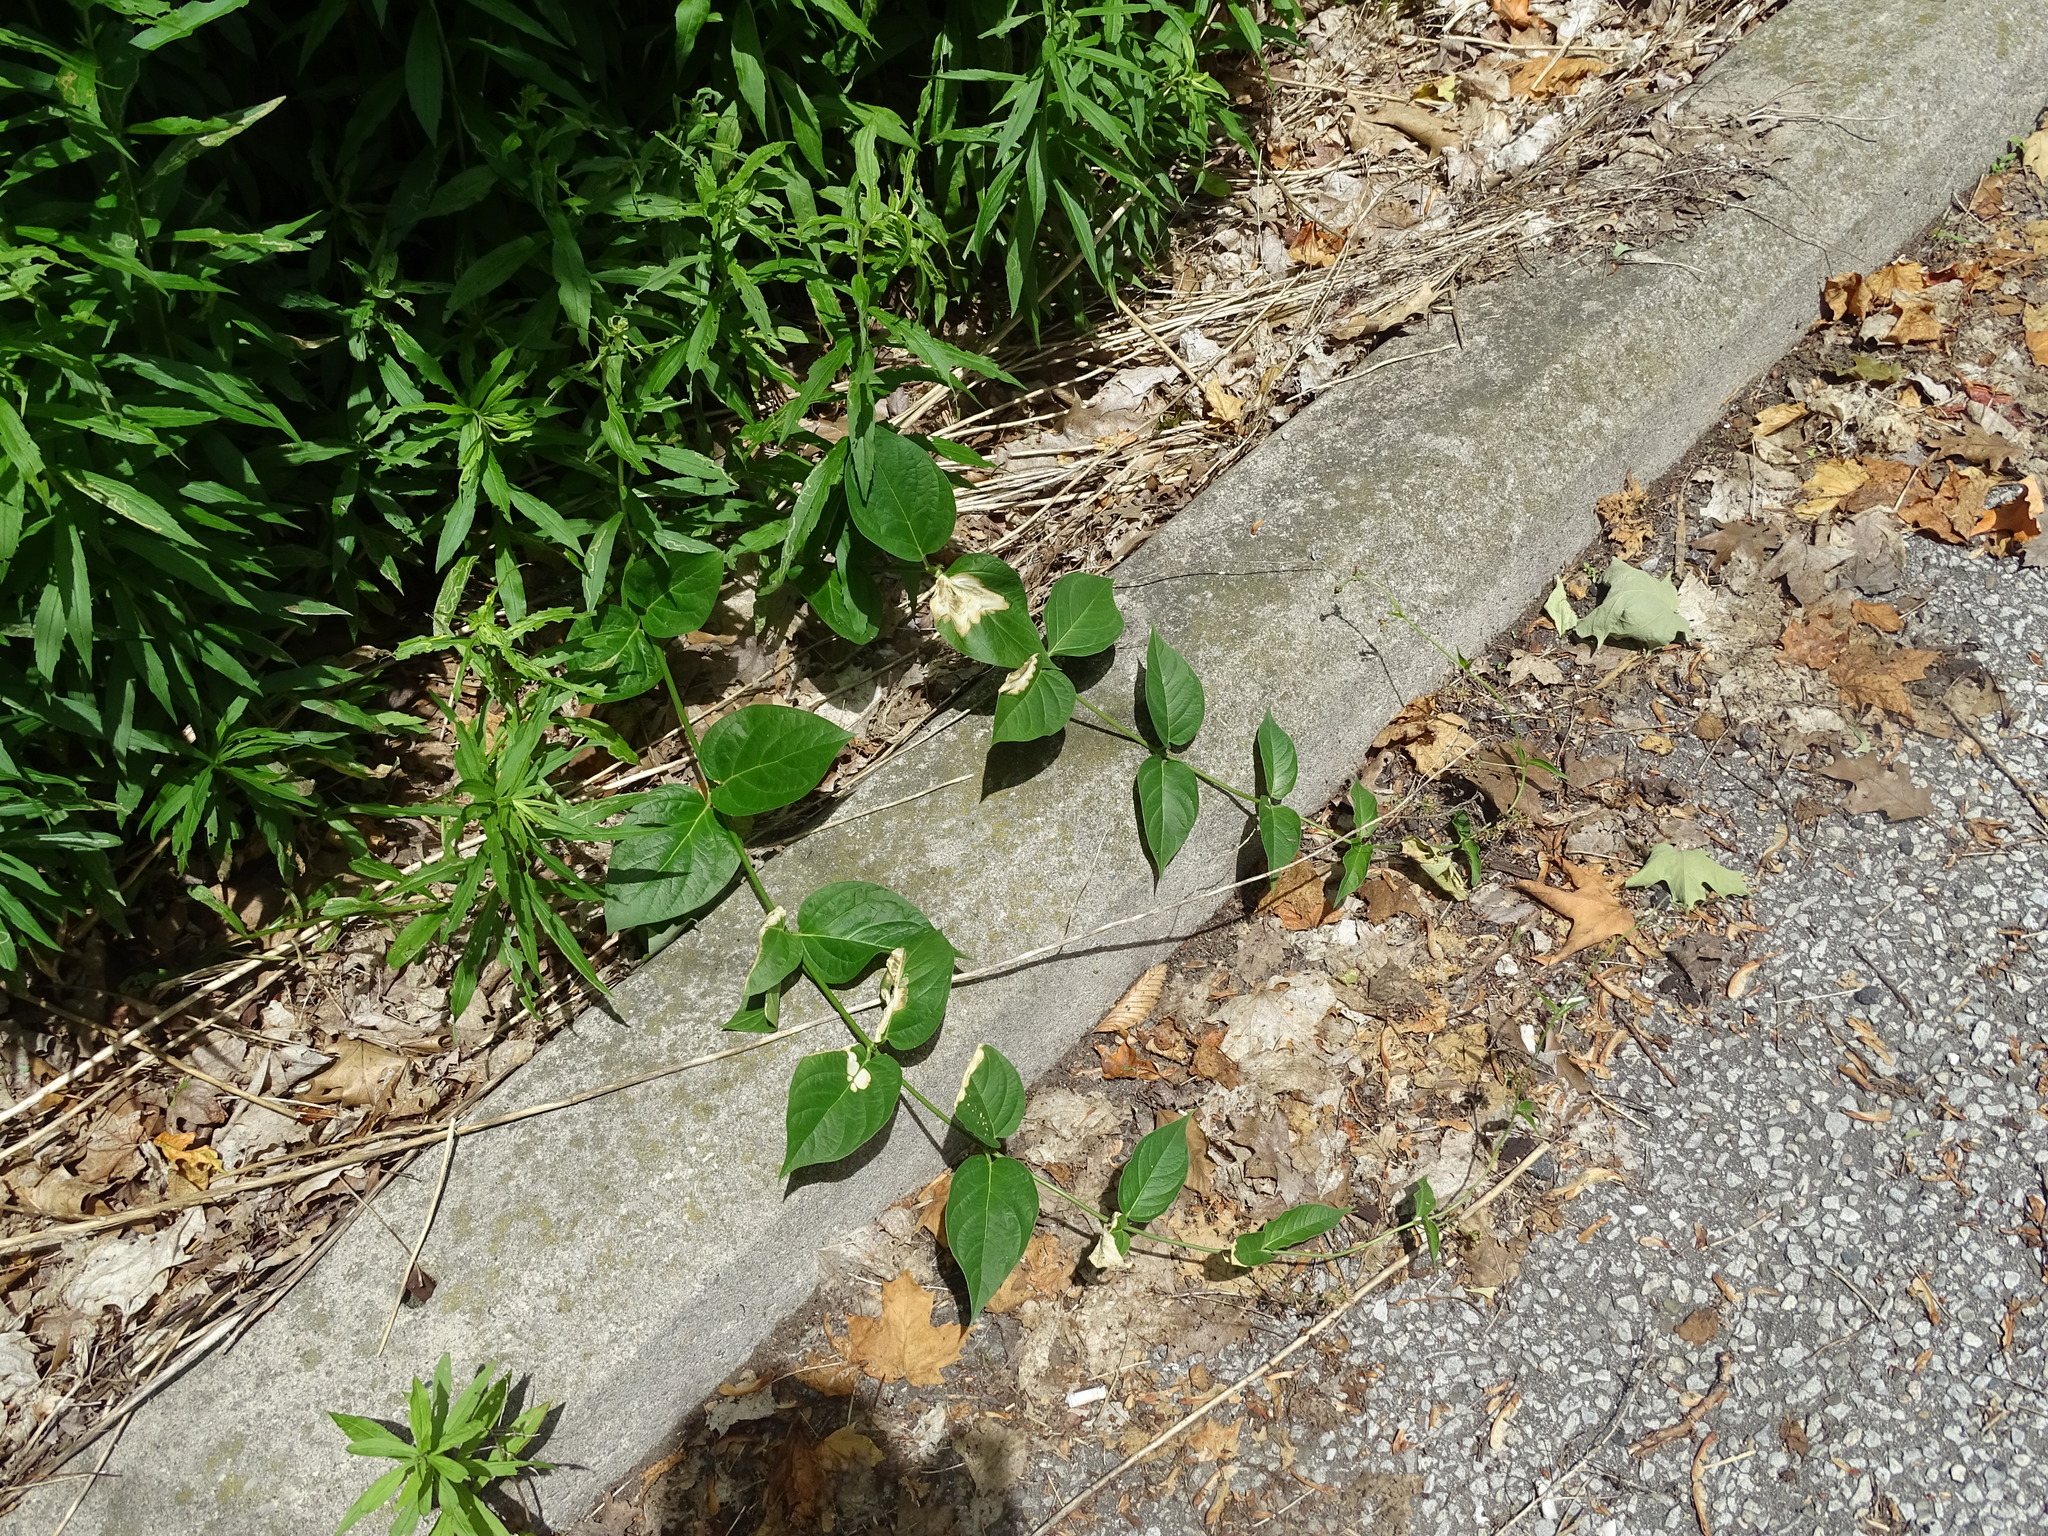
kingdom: Plantae
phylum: Tracheophyta
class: Magnoliopsida
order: Gentianales
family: Apocynaceae
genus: Vincetoxicum
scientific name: Vincetoxicum rossicum
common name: Dog-strangling vine
